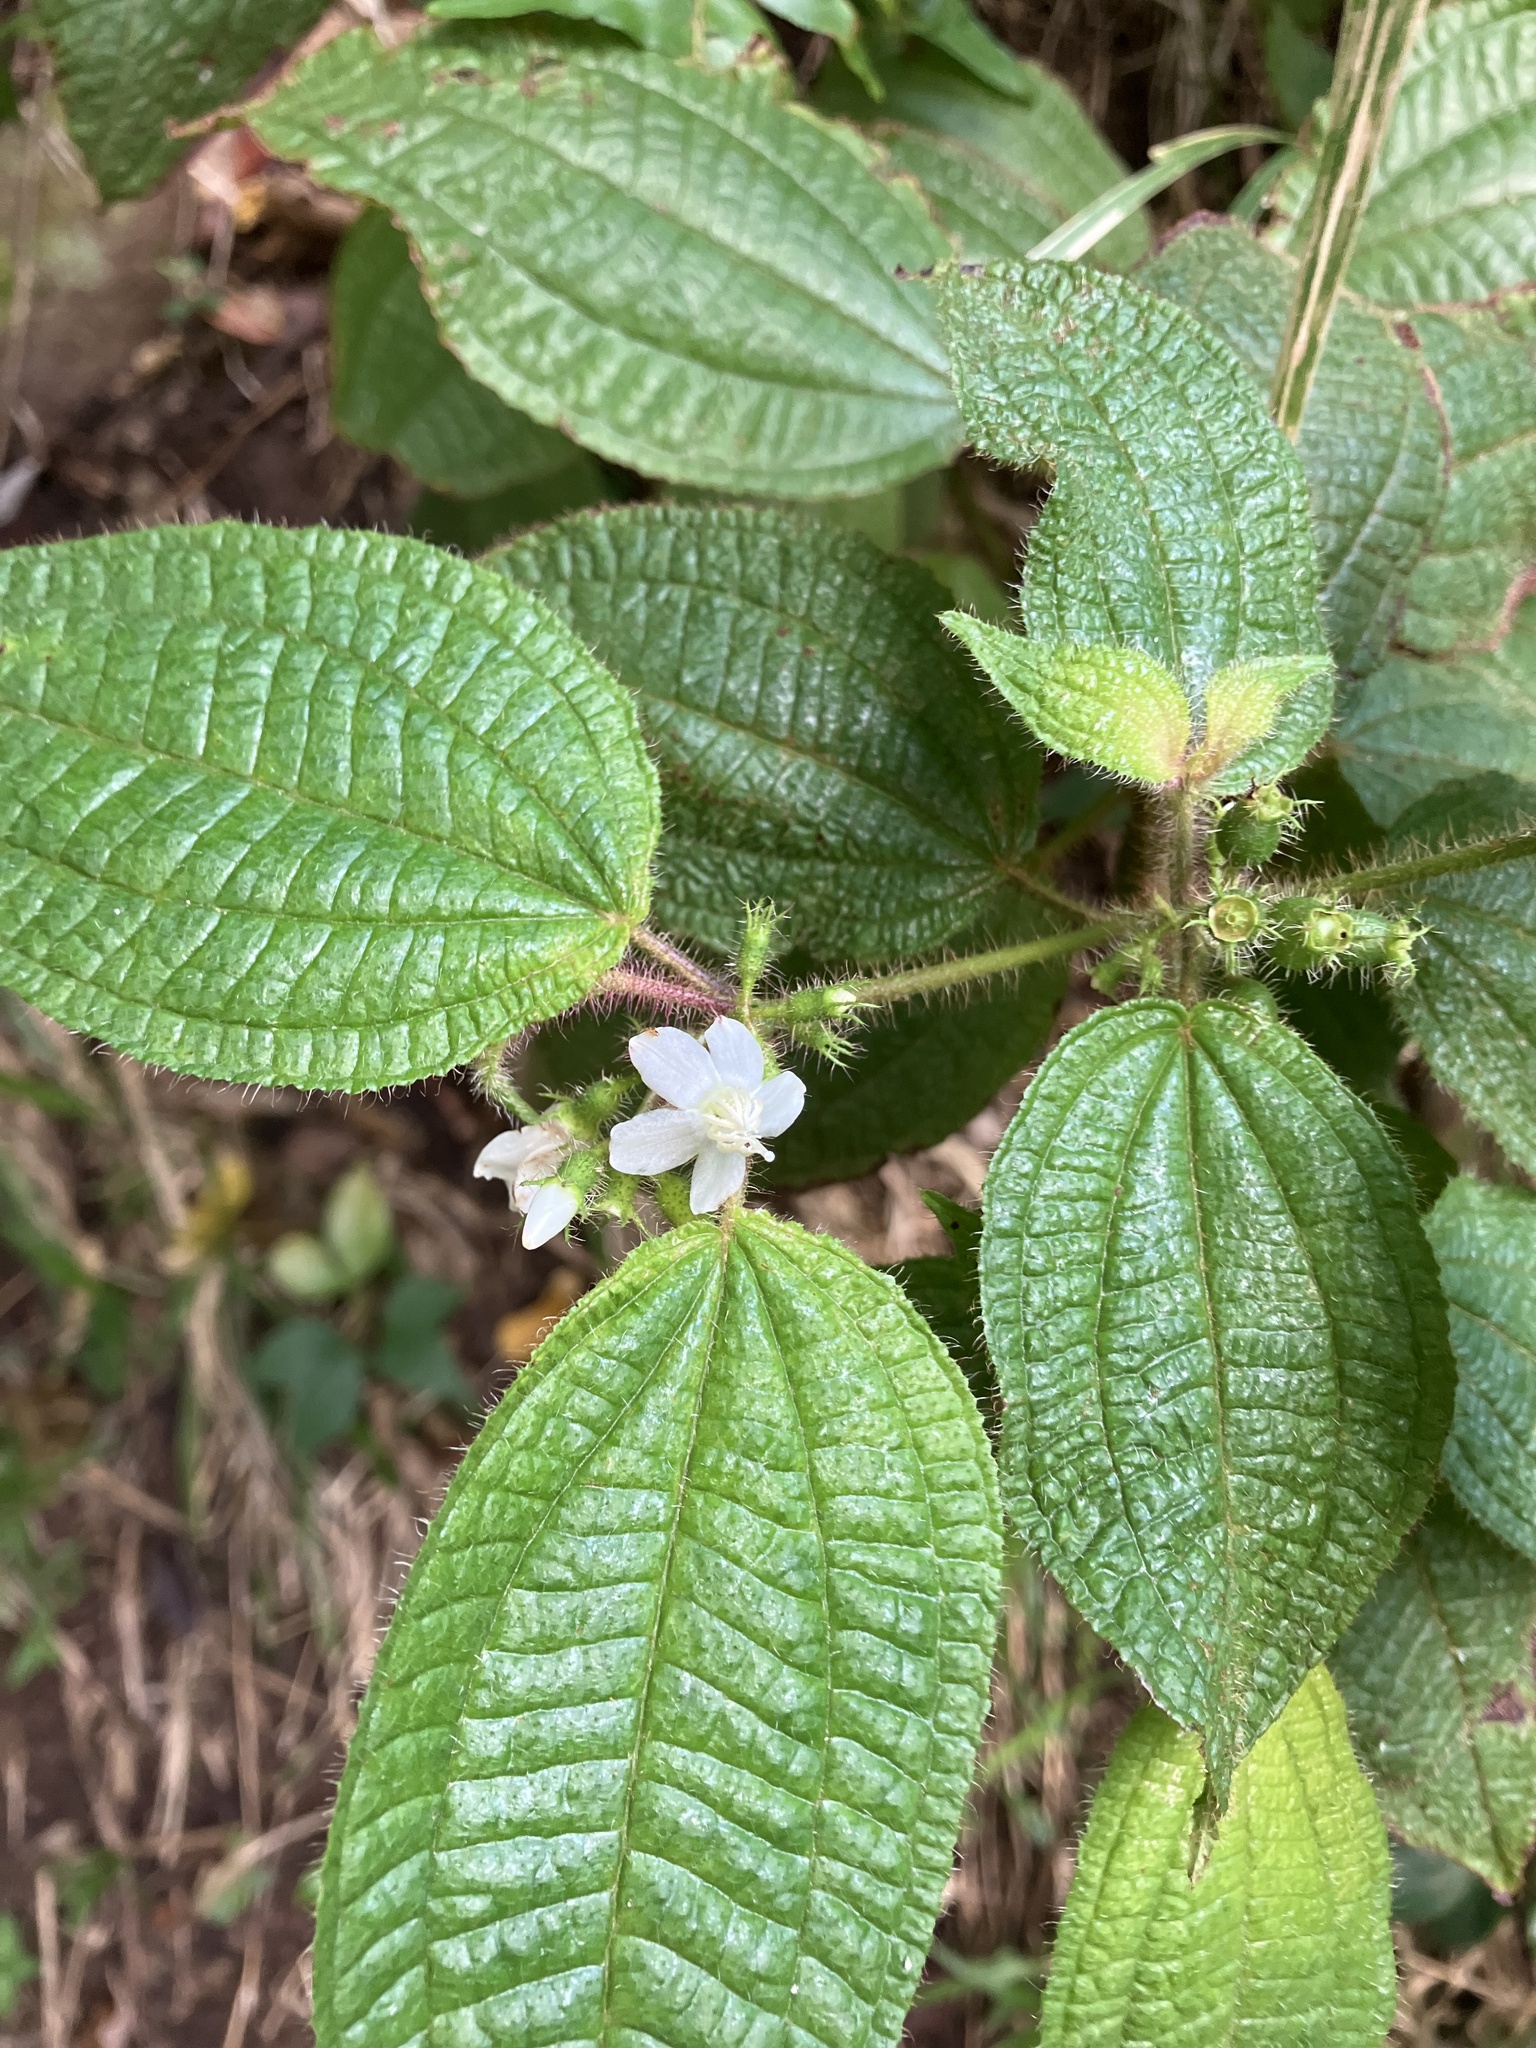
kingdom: Plantae
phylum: Tracheophyta
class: Magnoliopsida
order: Myrtales
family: Melastomataceae
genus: Miconia
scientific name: Miconia crenata
